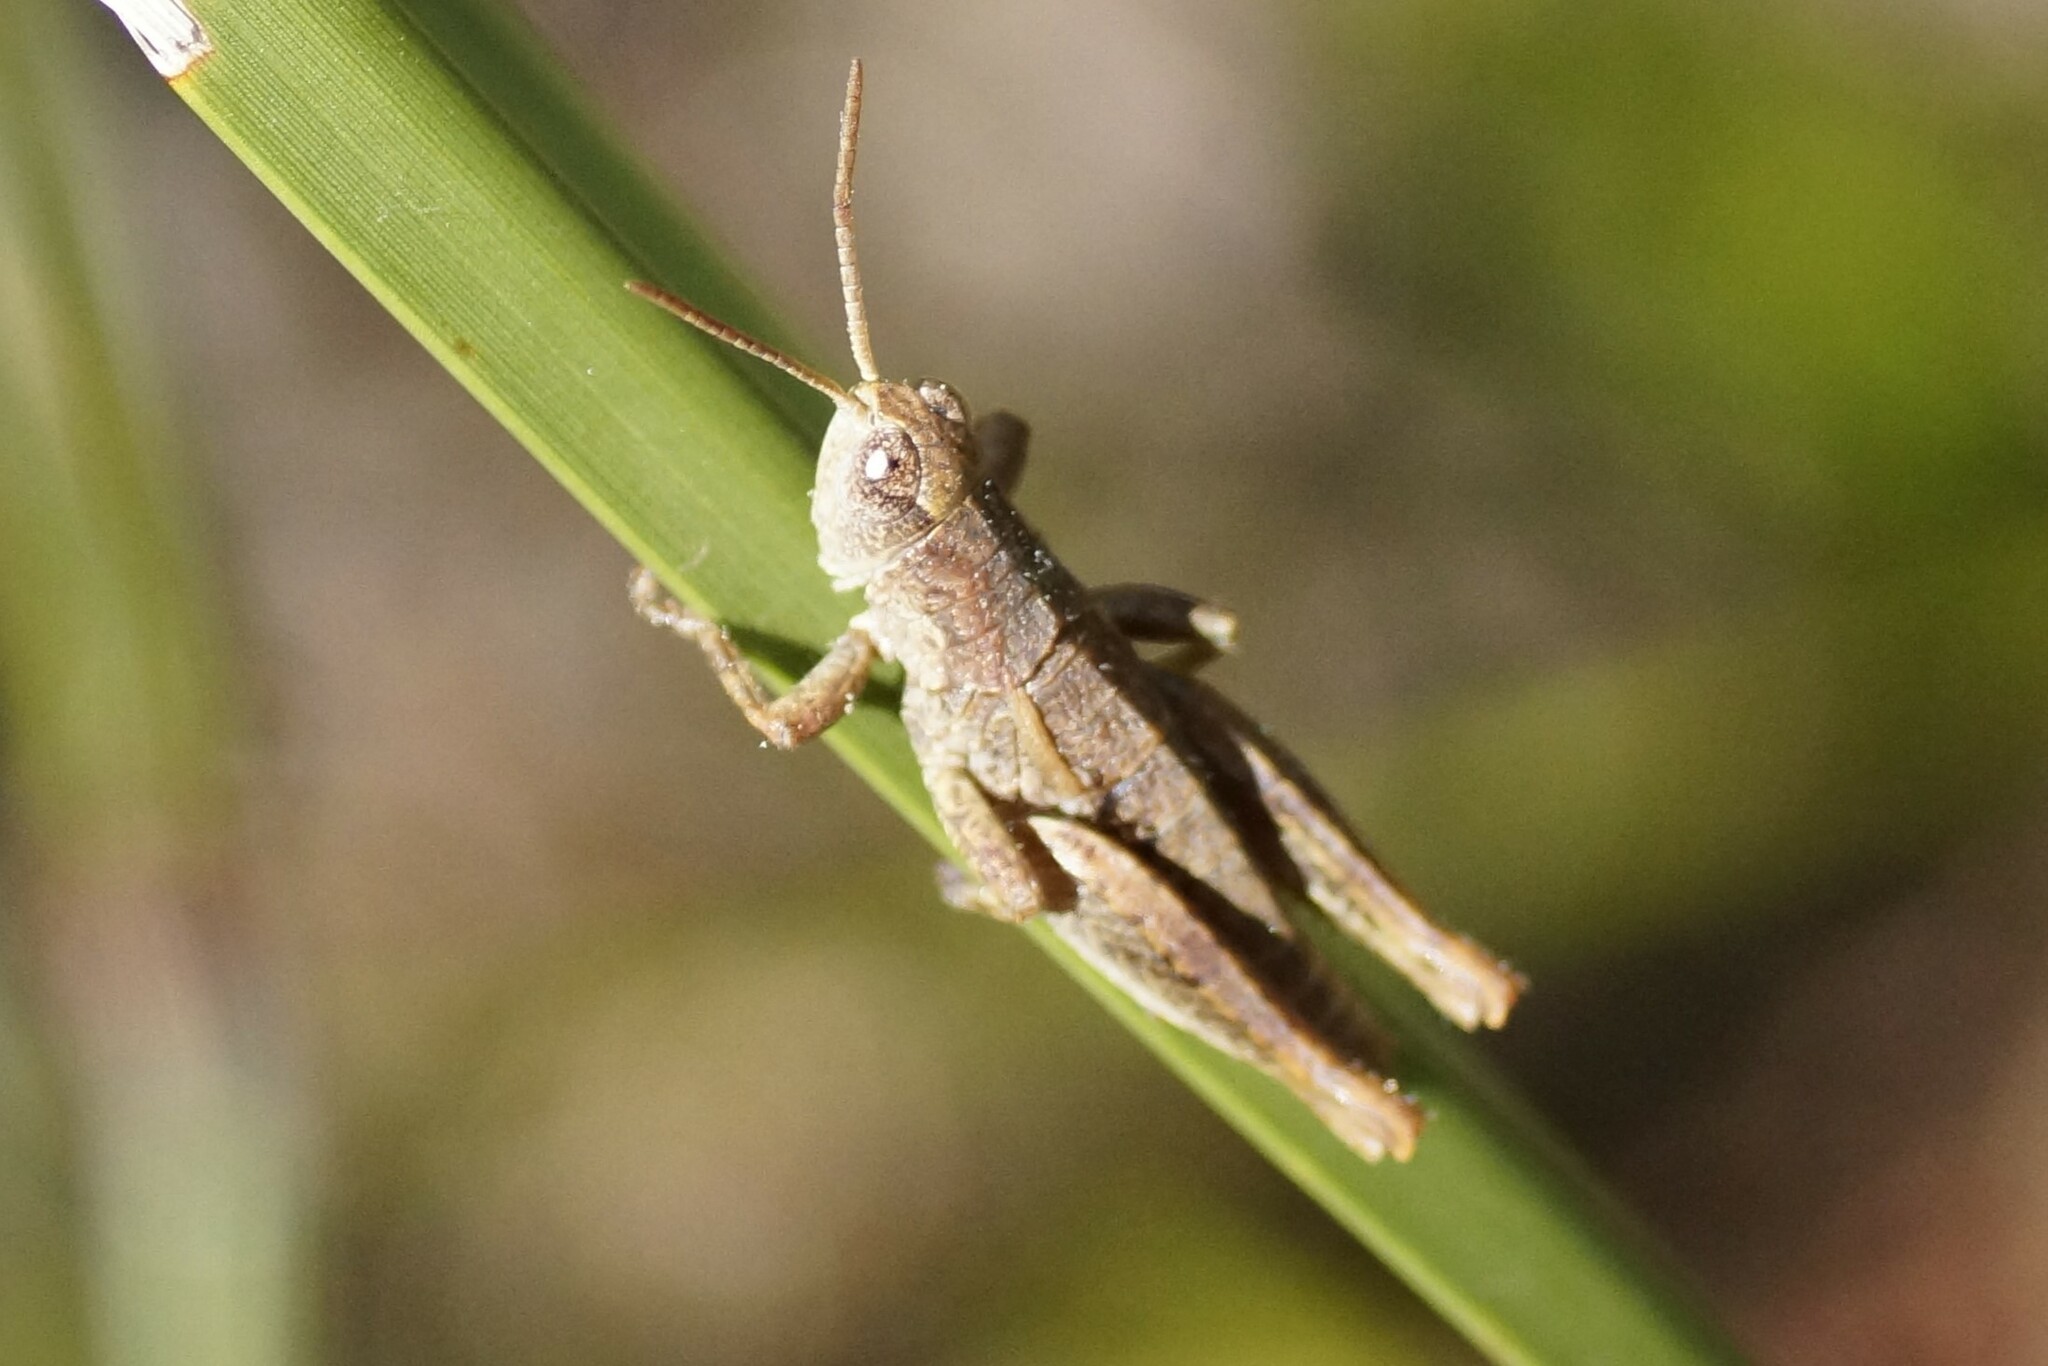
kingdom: Animalia
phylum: Arthropoda
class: Insecta
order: Orthoptera
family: Acrididae
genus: Tasmaniacris
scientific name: Tasmaniacris tasmaniensis
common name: Tasmanian grasshopper
